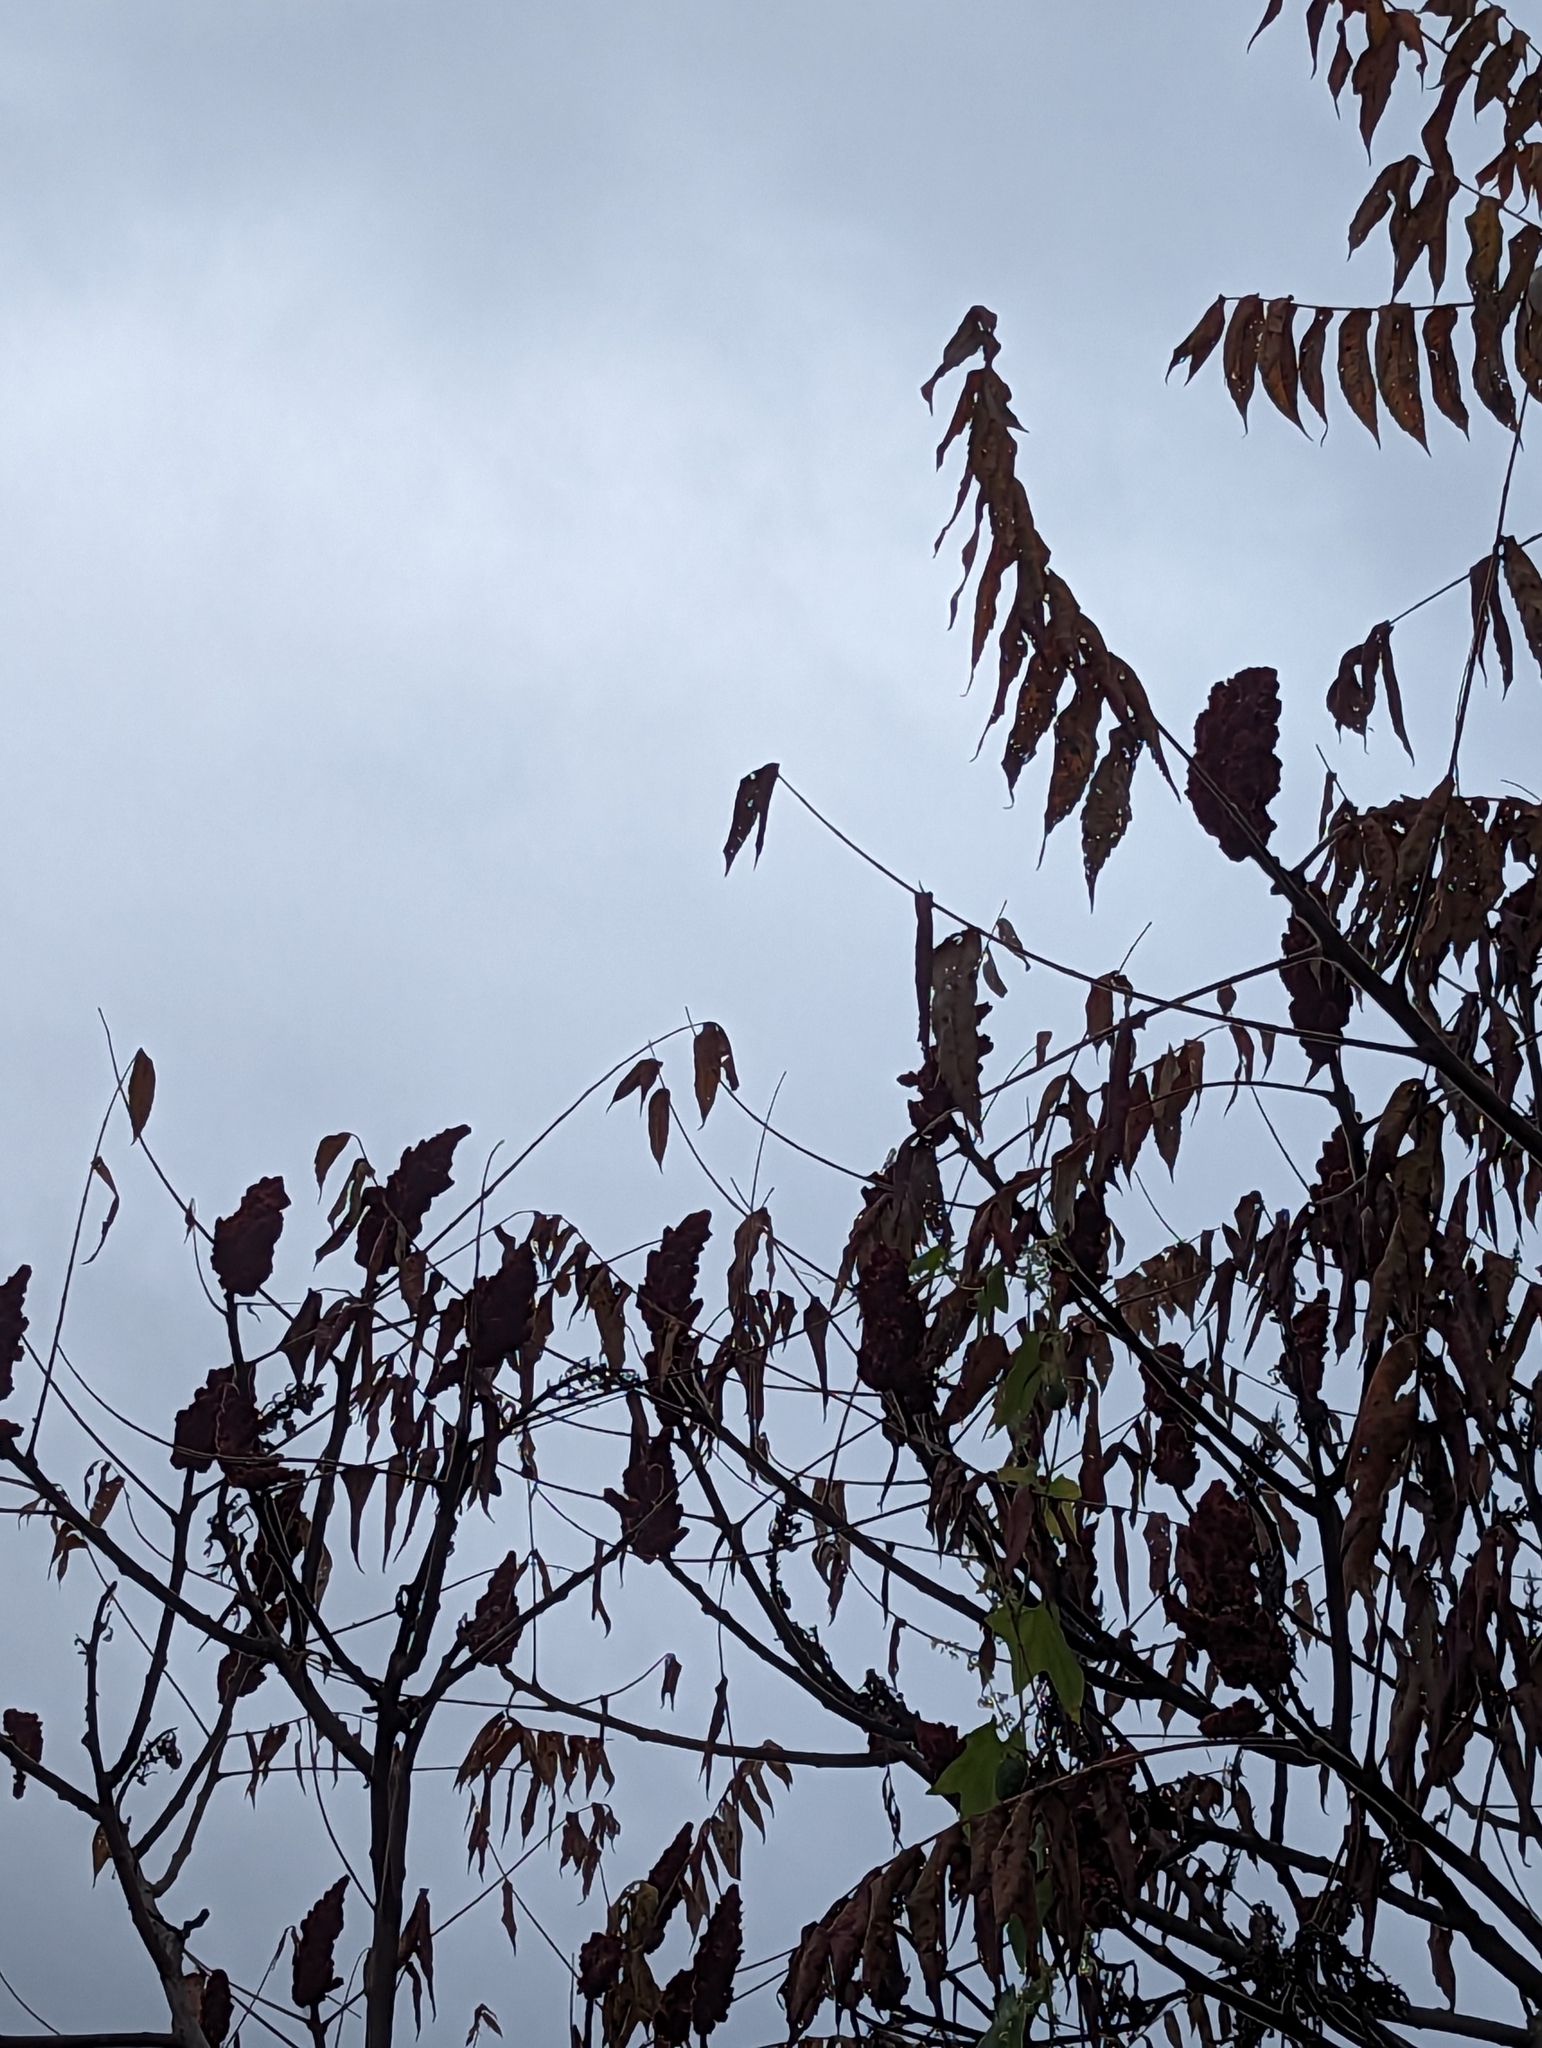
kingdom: Plantae
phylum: Tracheophyta
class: Magnoliopsida
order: Sapindales
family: Anacardiaceae
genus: Rhus
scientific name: Rhus typhina
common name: Staghorn sumac
